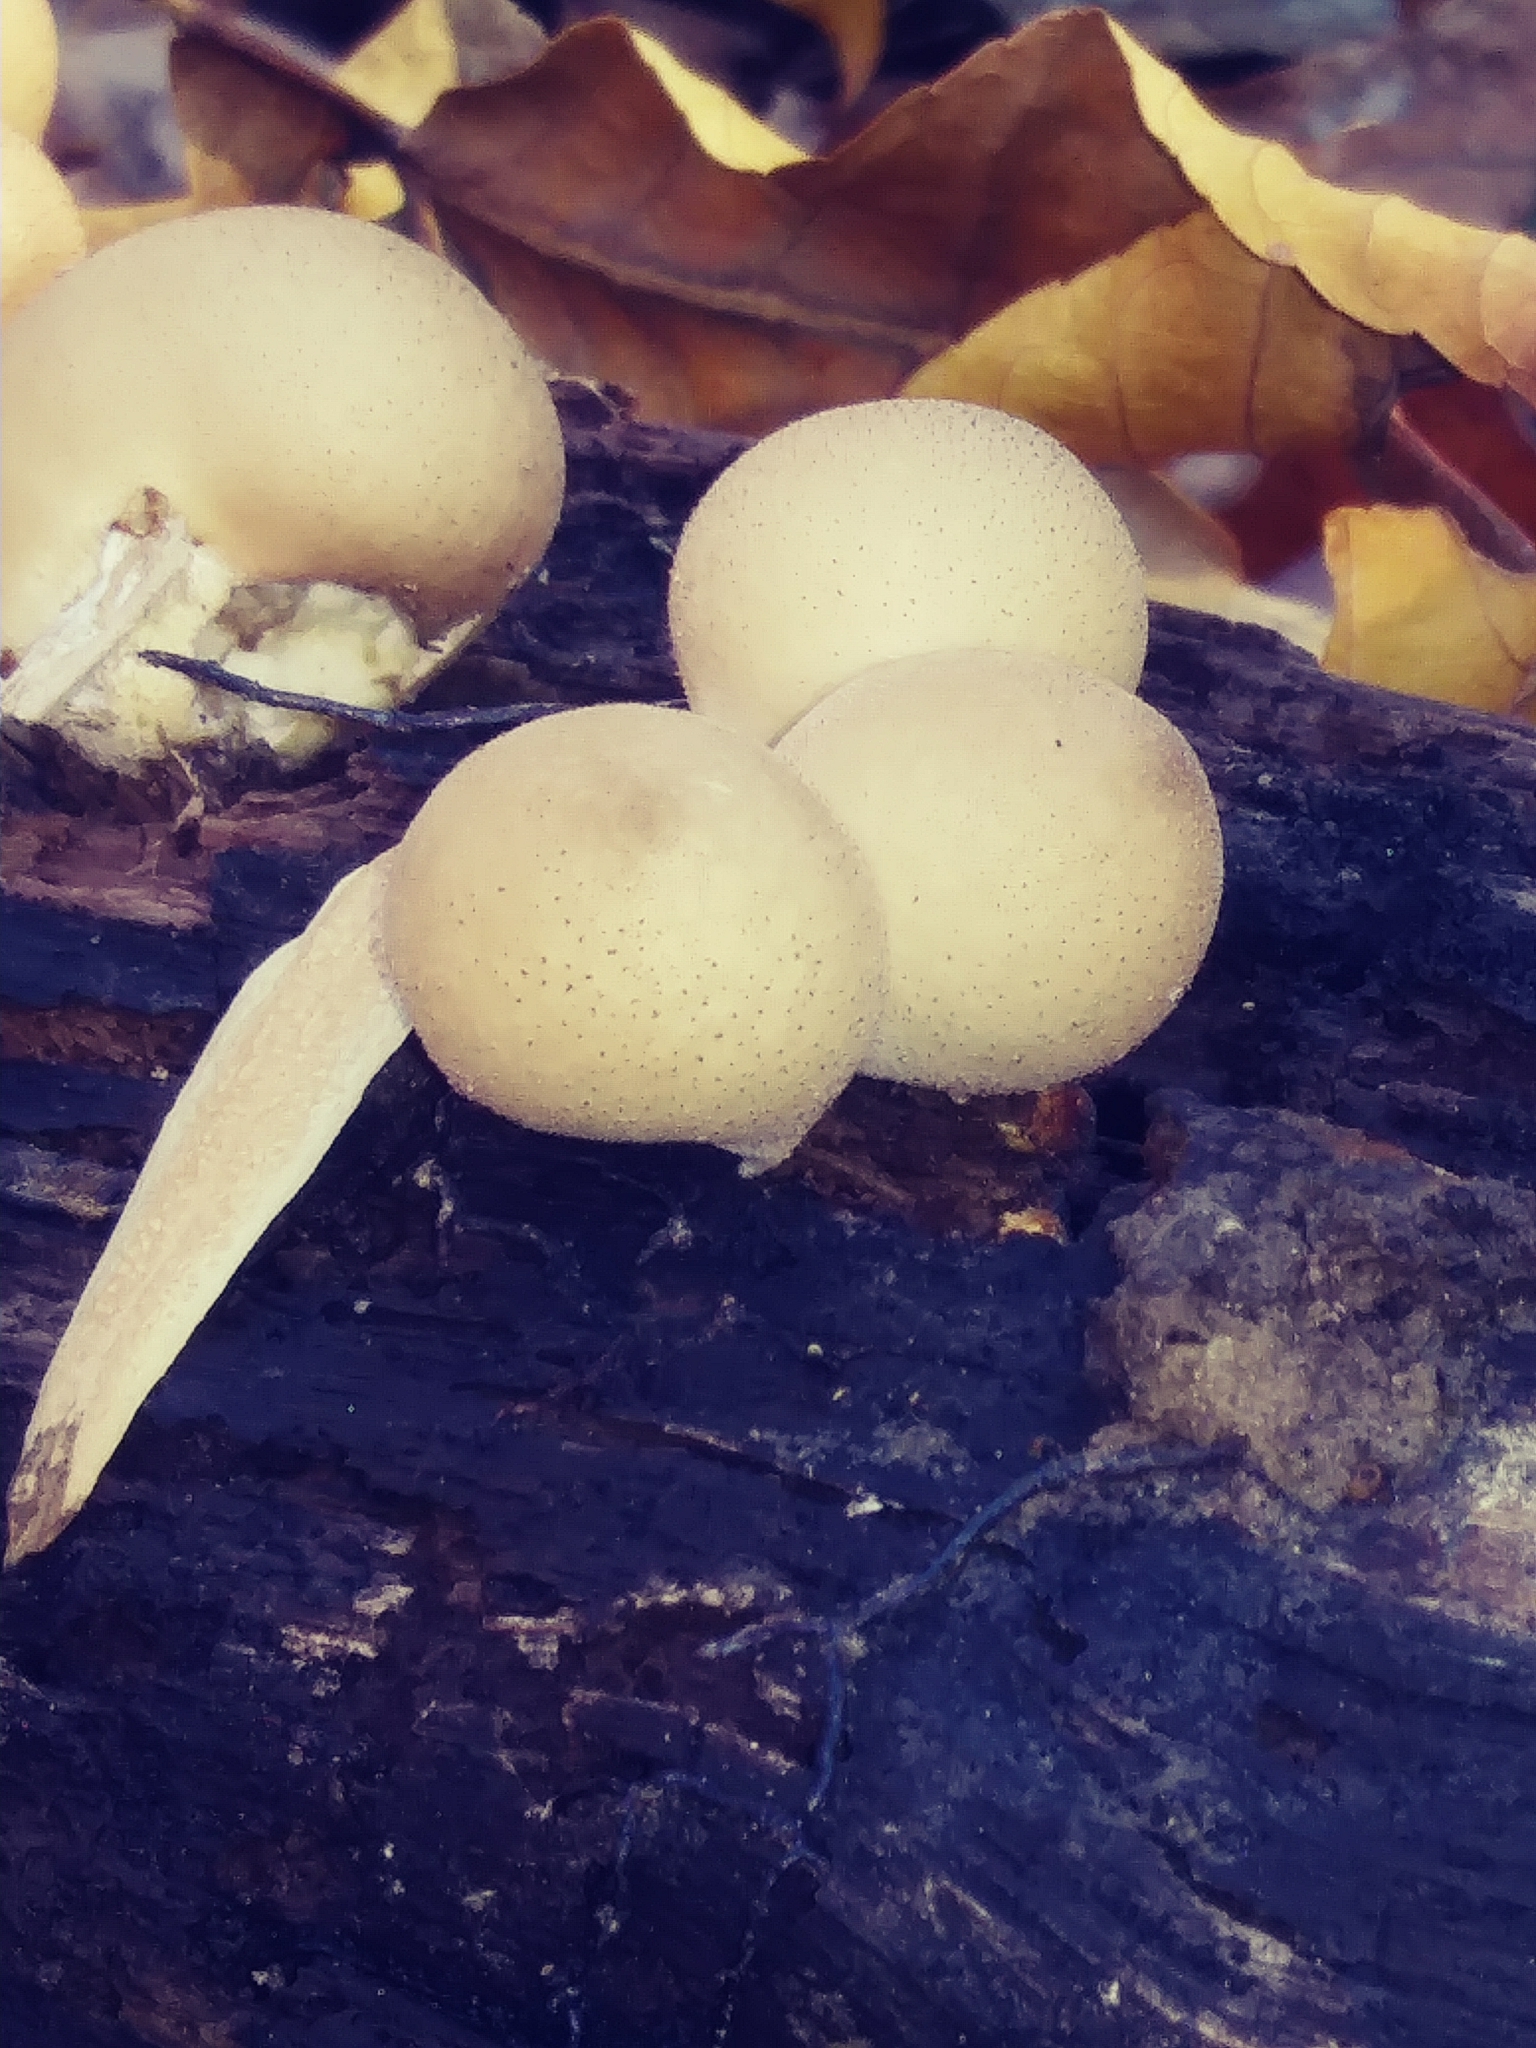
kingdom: Fungi
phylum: Basidiomycota
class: Agaricomycetes
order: Agaricales
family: Lycoperdaceae
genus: Apioperdon
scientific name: Apioperdon pyriforme
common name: Pear-shaped puffball
